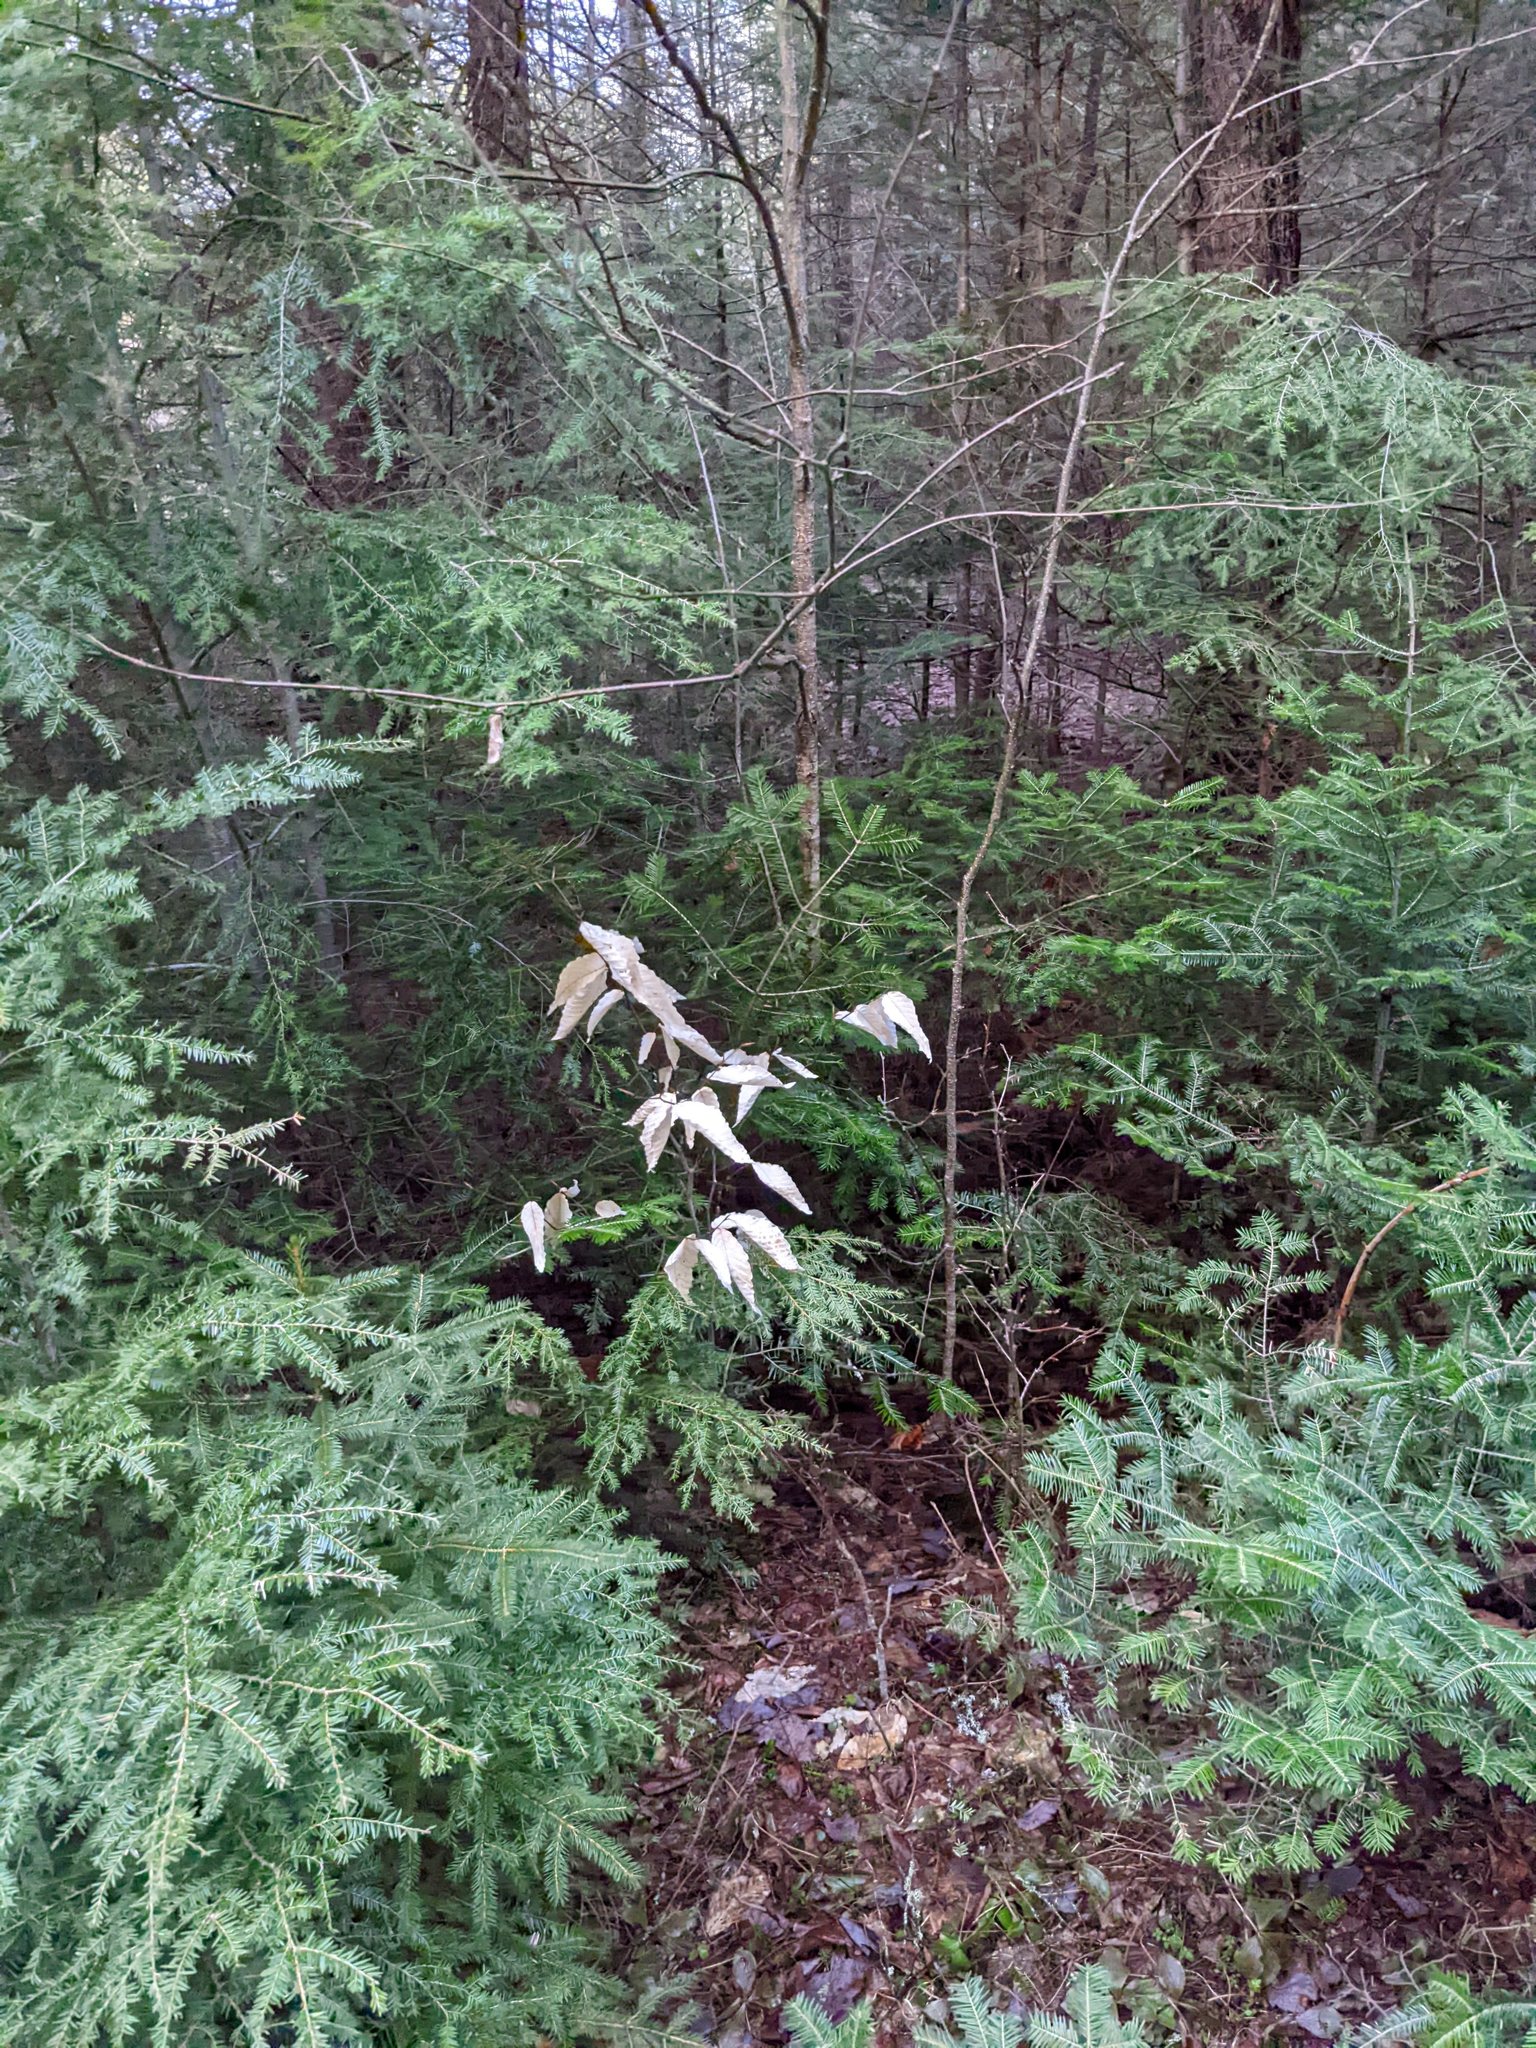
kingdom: Plantae
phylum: Tracheophyta
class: Magnoliopsida
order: Fagales
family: Fagaceae
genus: Fagus
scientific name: Fagus grandifolia
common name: American beech
